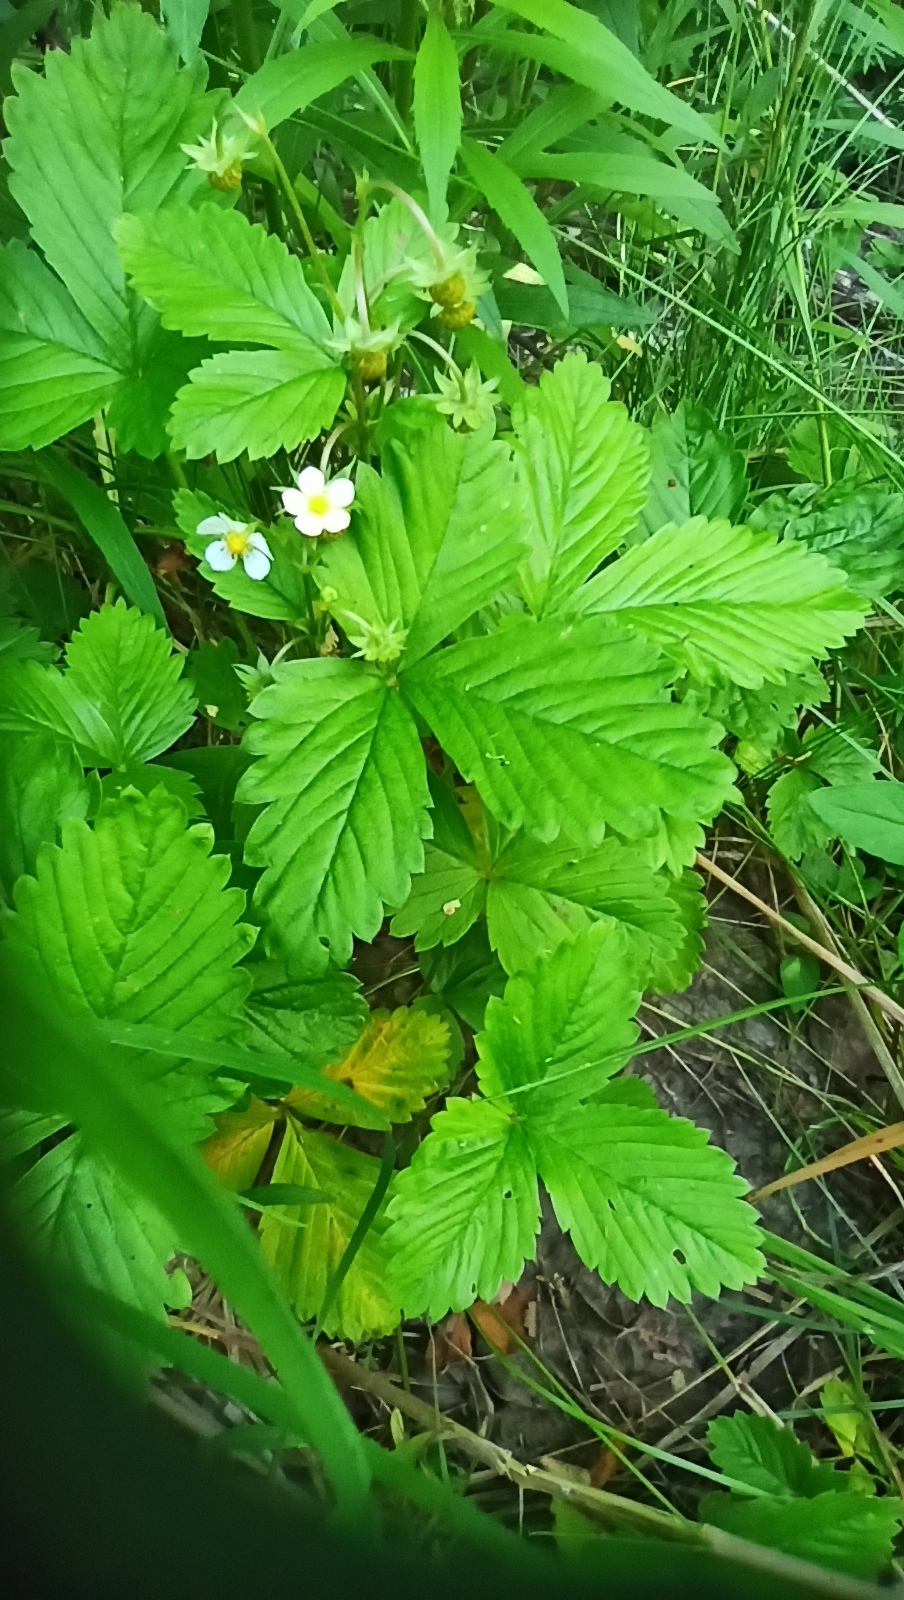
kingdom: Plantae
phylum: Tracheophyta
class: Magnoliopsida
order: Rosales
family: Rosaceae
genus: Fragaria
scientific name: Fragaria vesca
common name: Wild strawberry
